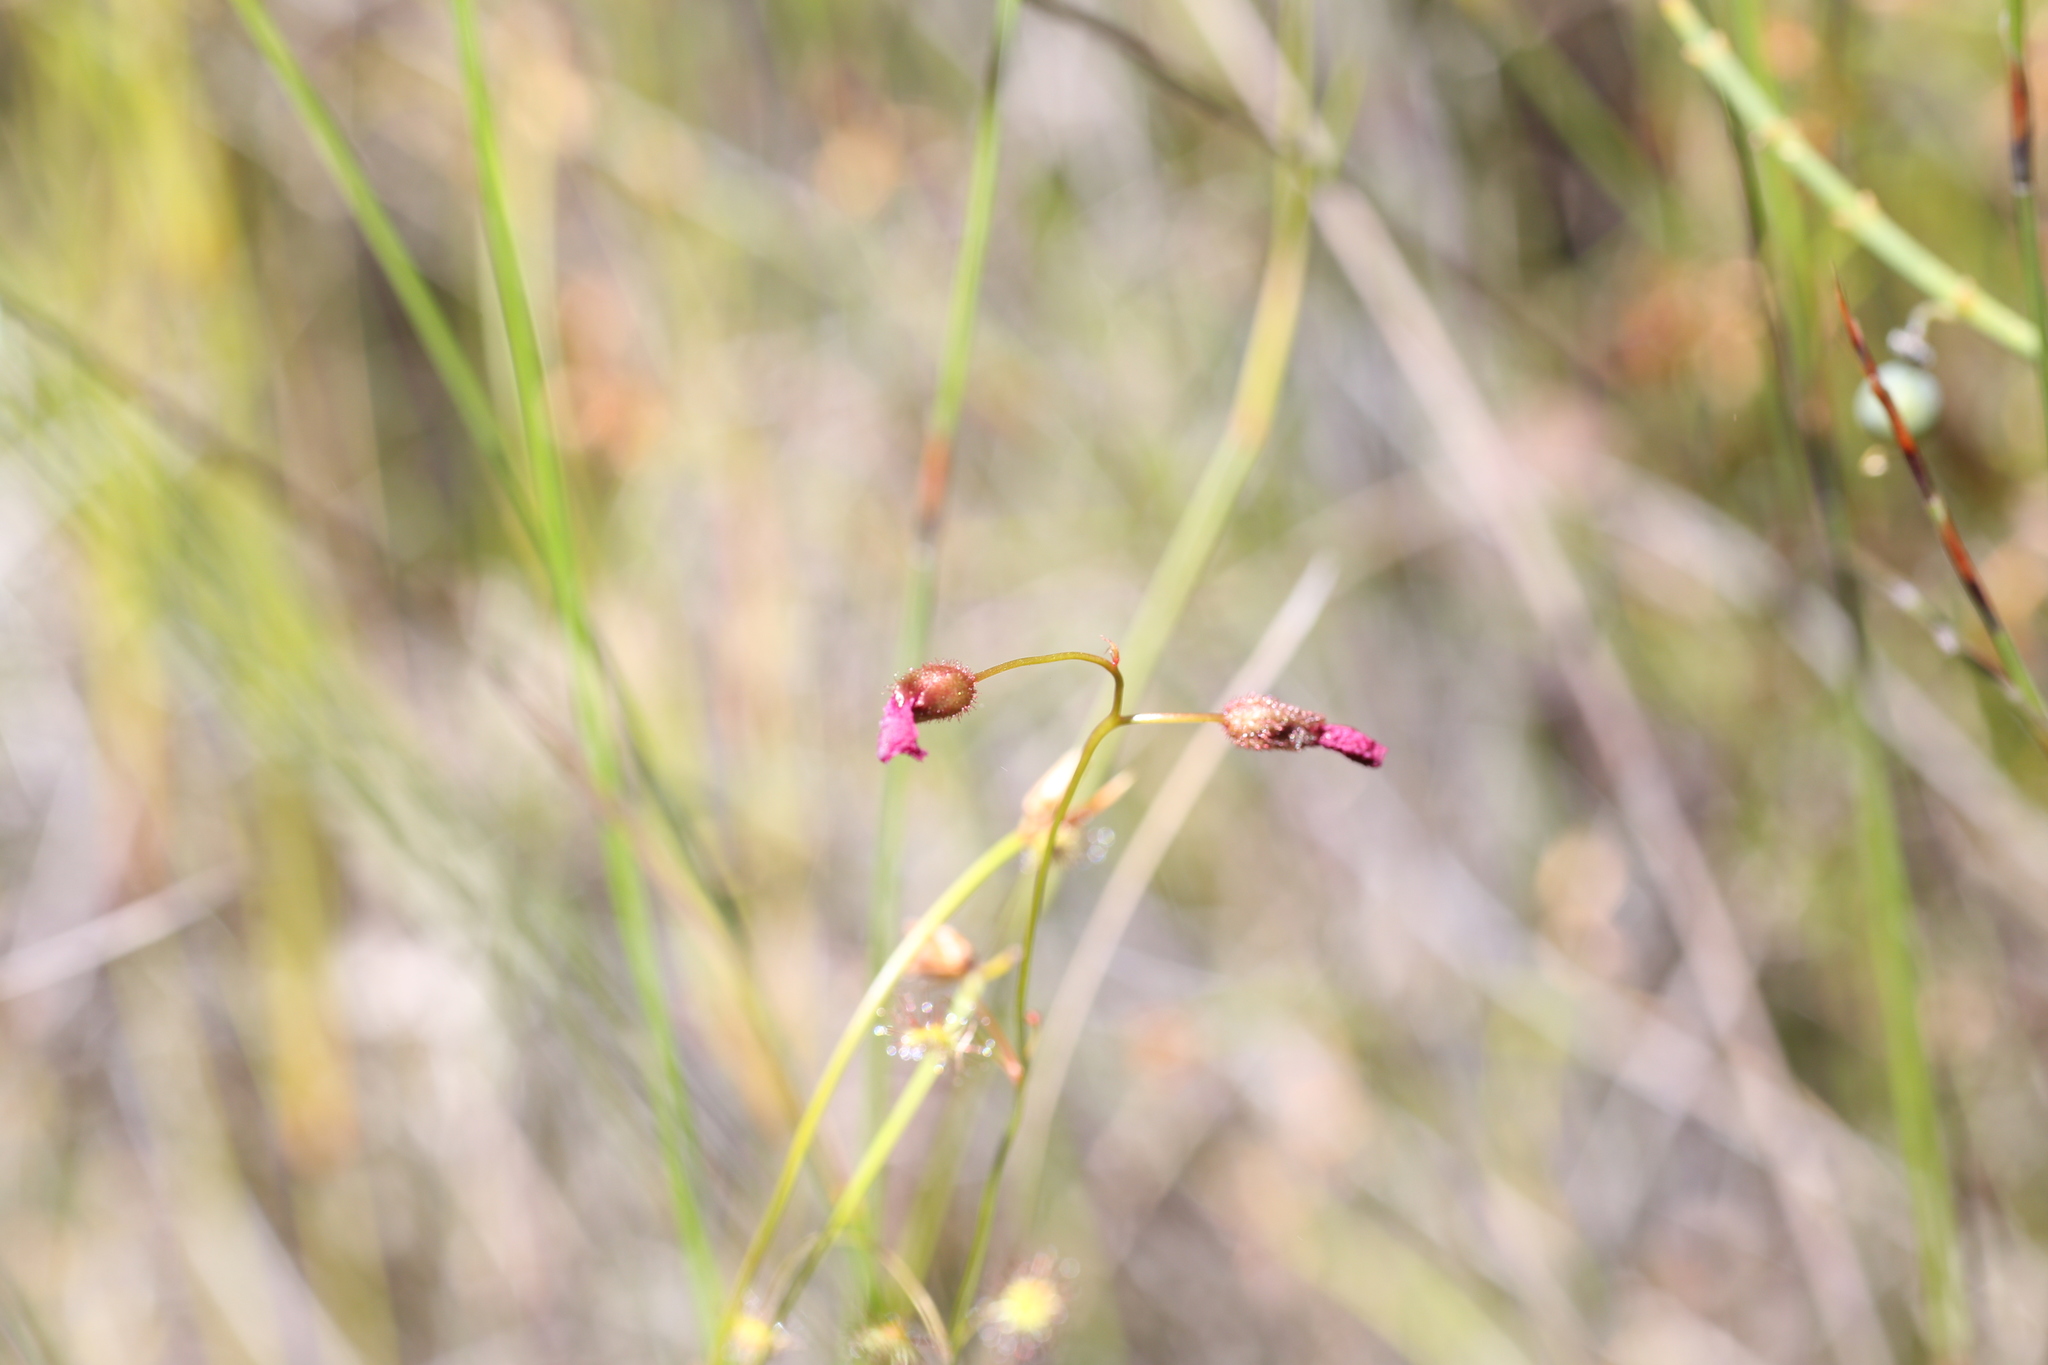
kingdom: Plantae
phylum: Tracheophyta
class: Magnoliopsida
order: Caryophyllales
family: Droseraceae
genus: Drosera
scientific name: Drosera
